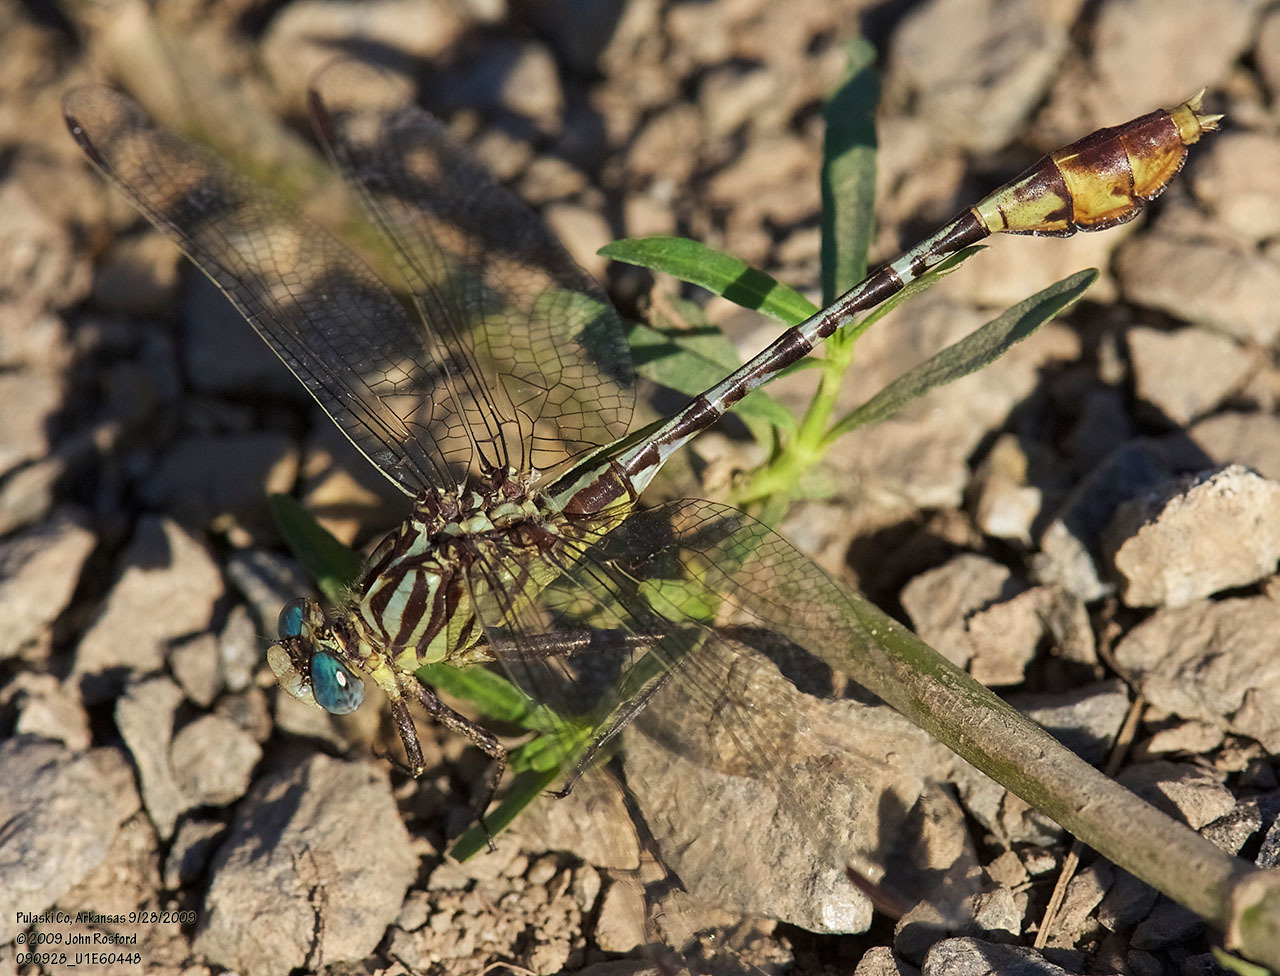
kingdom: Animalia
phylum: Arthropoda
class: Insecta
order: Odonata
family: Gomphidae
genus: Dromogomphus
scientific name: Dromogomphus spoliatus
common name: Flag-tailed spinyleg
